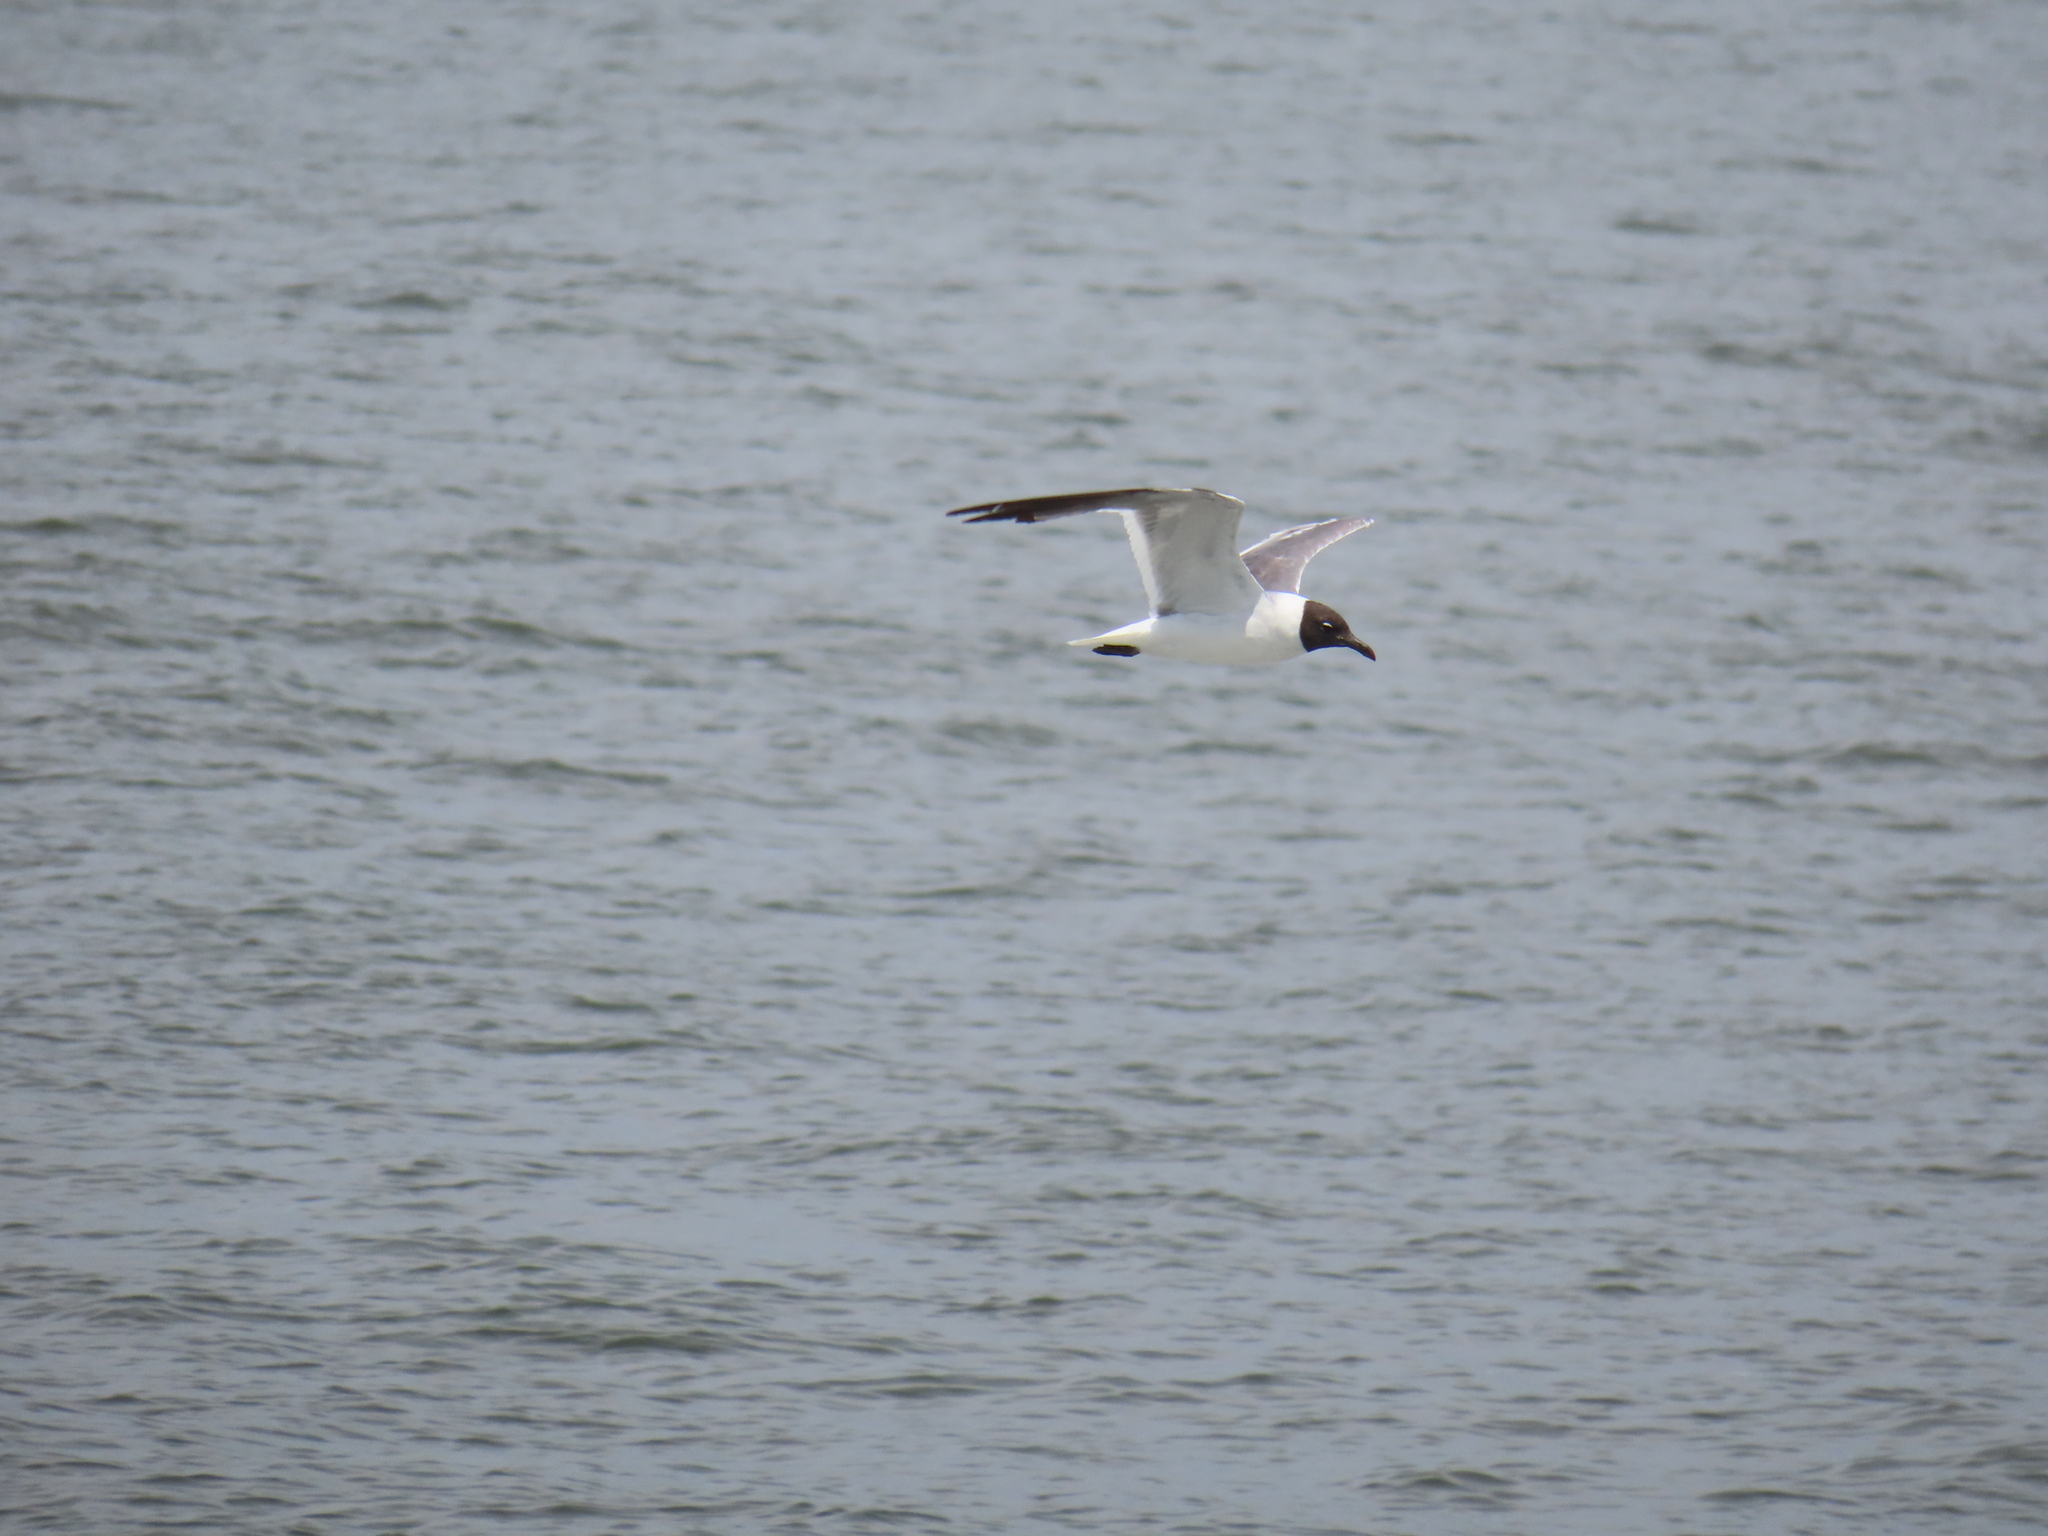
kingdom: Animalia
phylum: Chordata
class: Aves
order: Charadriiformes
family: Laridae
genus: Leucophaeus
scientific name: Leucophaeus atricilla
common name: Laughing gull
